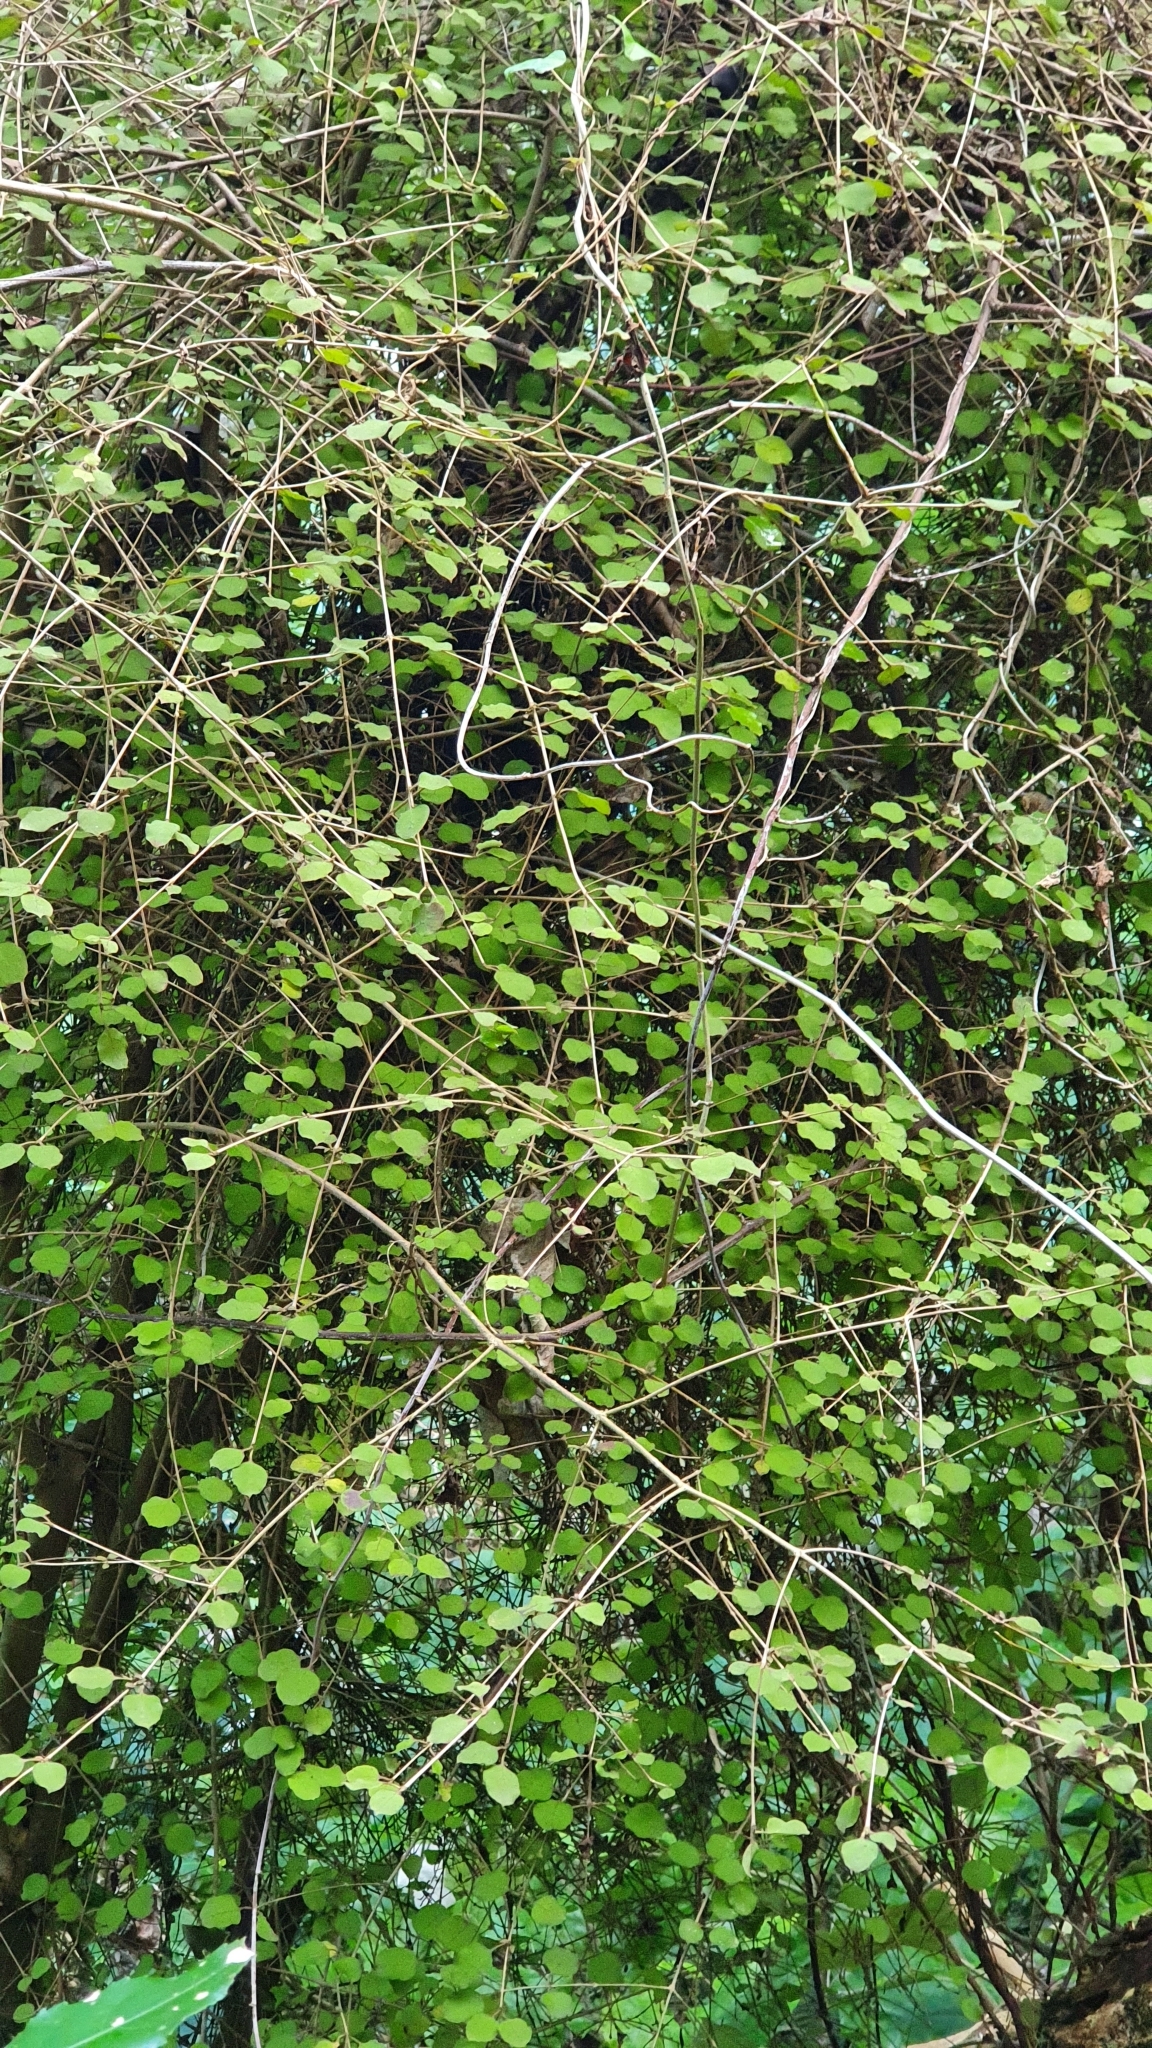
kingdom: Plantae
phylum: Tracheophyta
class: Magnoliopsida
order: Gentianales
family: Rubiaceae
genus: Coprosma
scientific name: Coprosma rotundifolia
